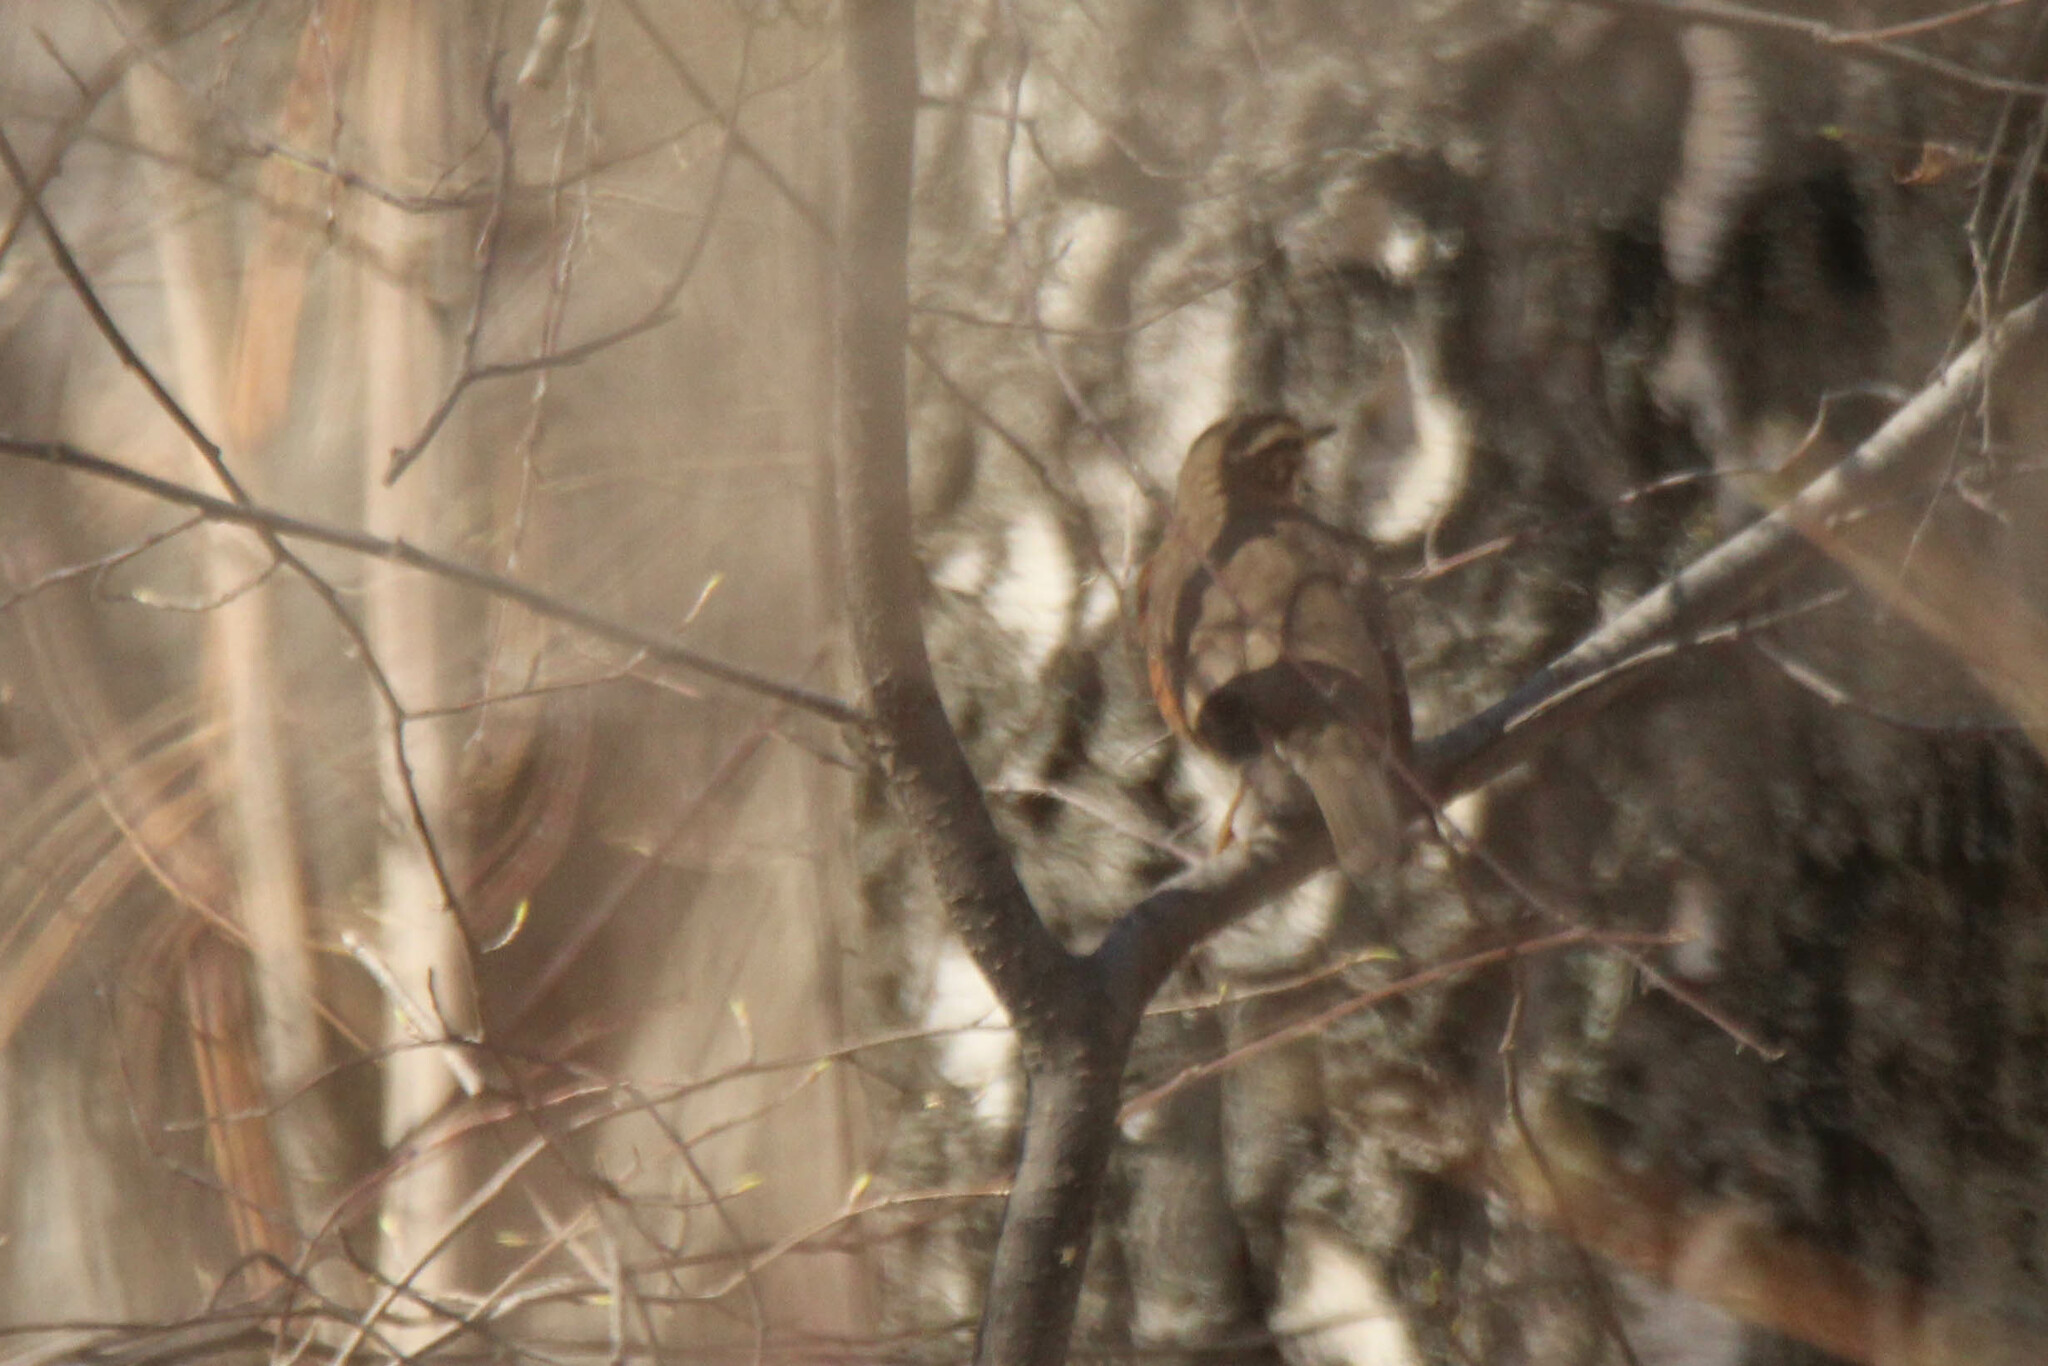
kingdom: Animalia
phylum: Chordata
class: Aves
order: Passeriformes
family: Turdidae
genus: Turdus
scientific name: Turdus iliacus
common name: Redwing
